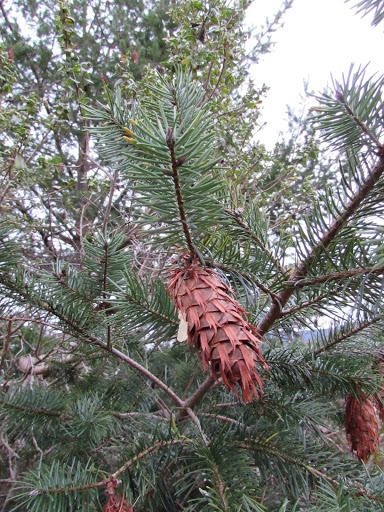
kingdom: Plantae
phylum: Tracheophyta
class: Pinopsida
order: Pinales
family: Pinaceae
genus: Pseudotsuga
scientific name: Pseudotsuga menziesii
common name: Douglas fir
